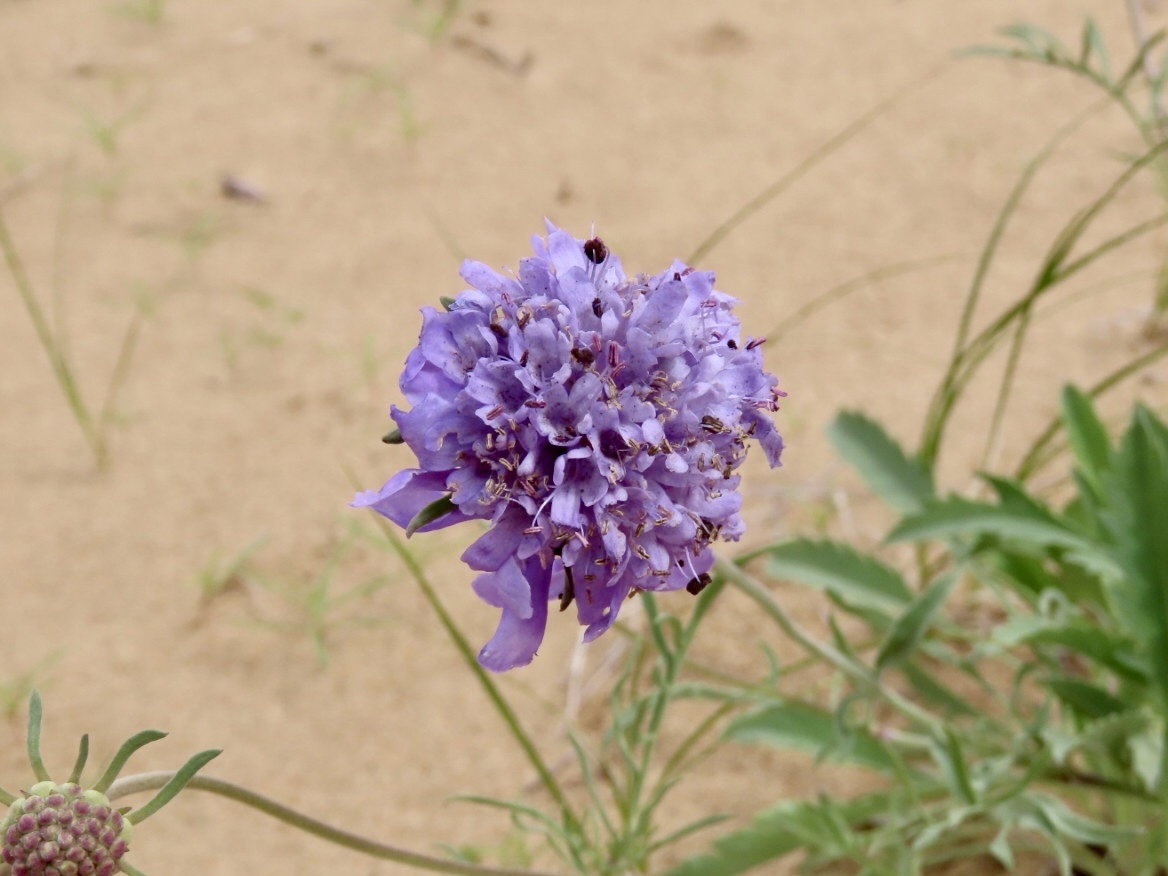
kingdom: Plantae
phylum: Tracheophyta
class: Magnoliopsida
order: Dipsacales
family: Caprifoliaceae
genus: Scabiosa
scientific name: Scabiosa comosa
